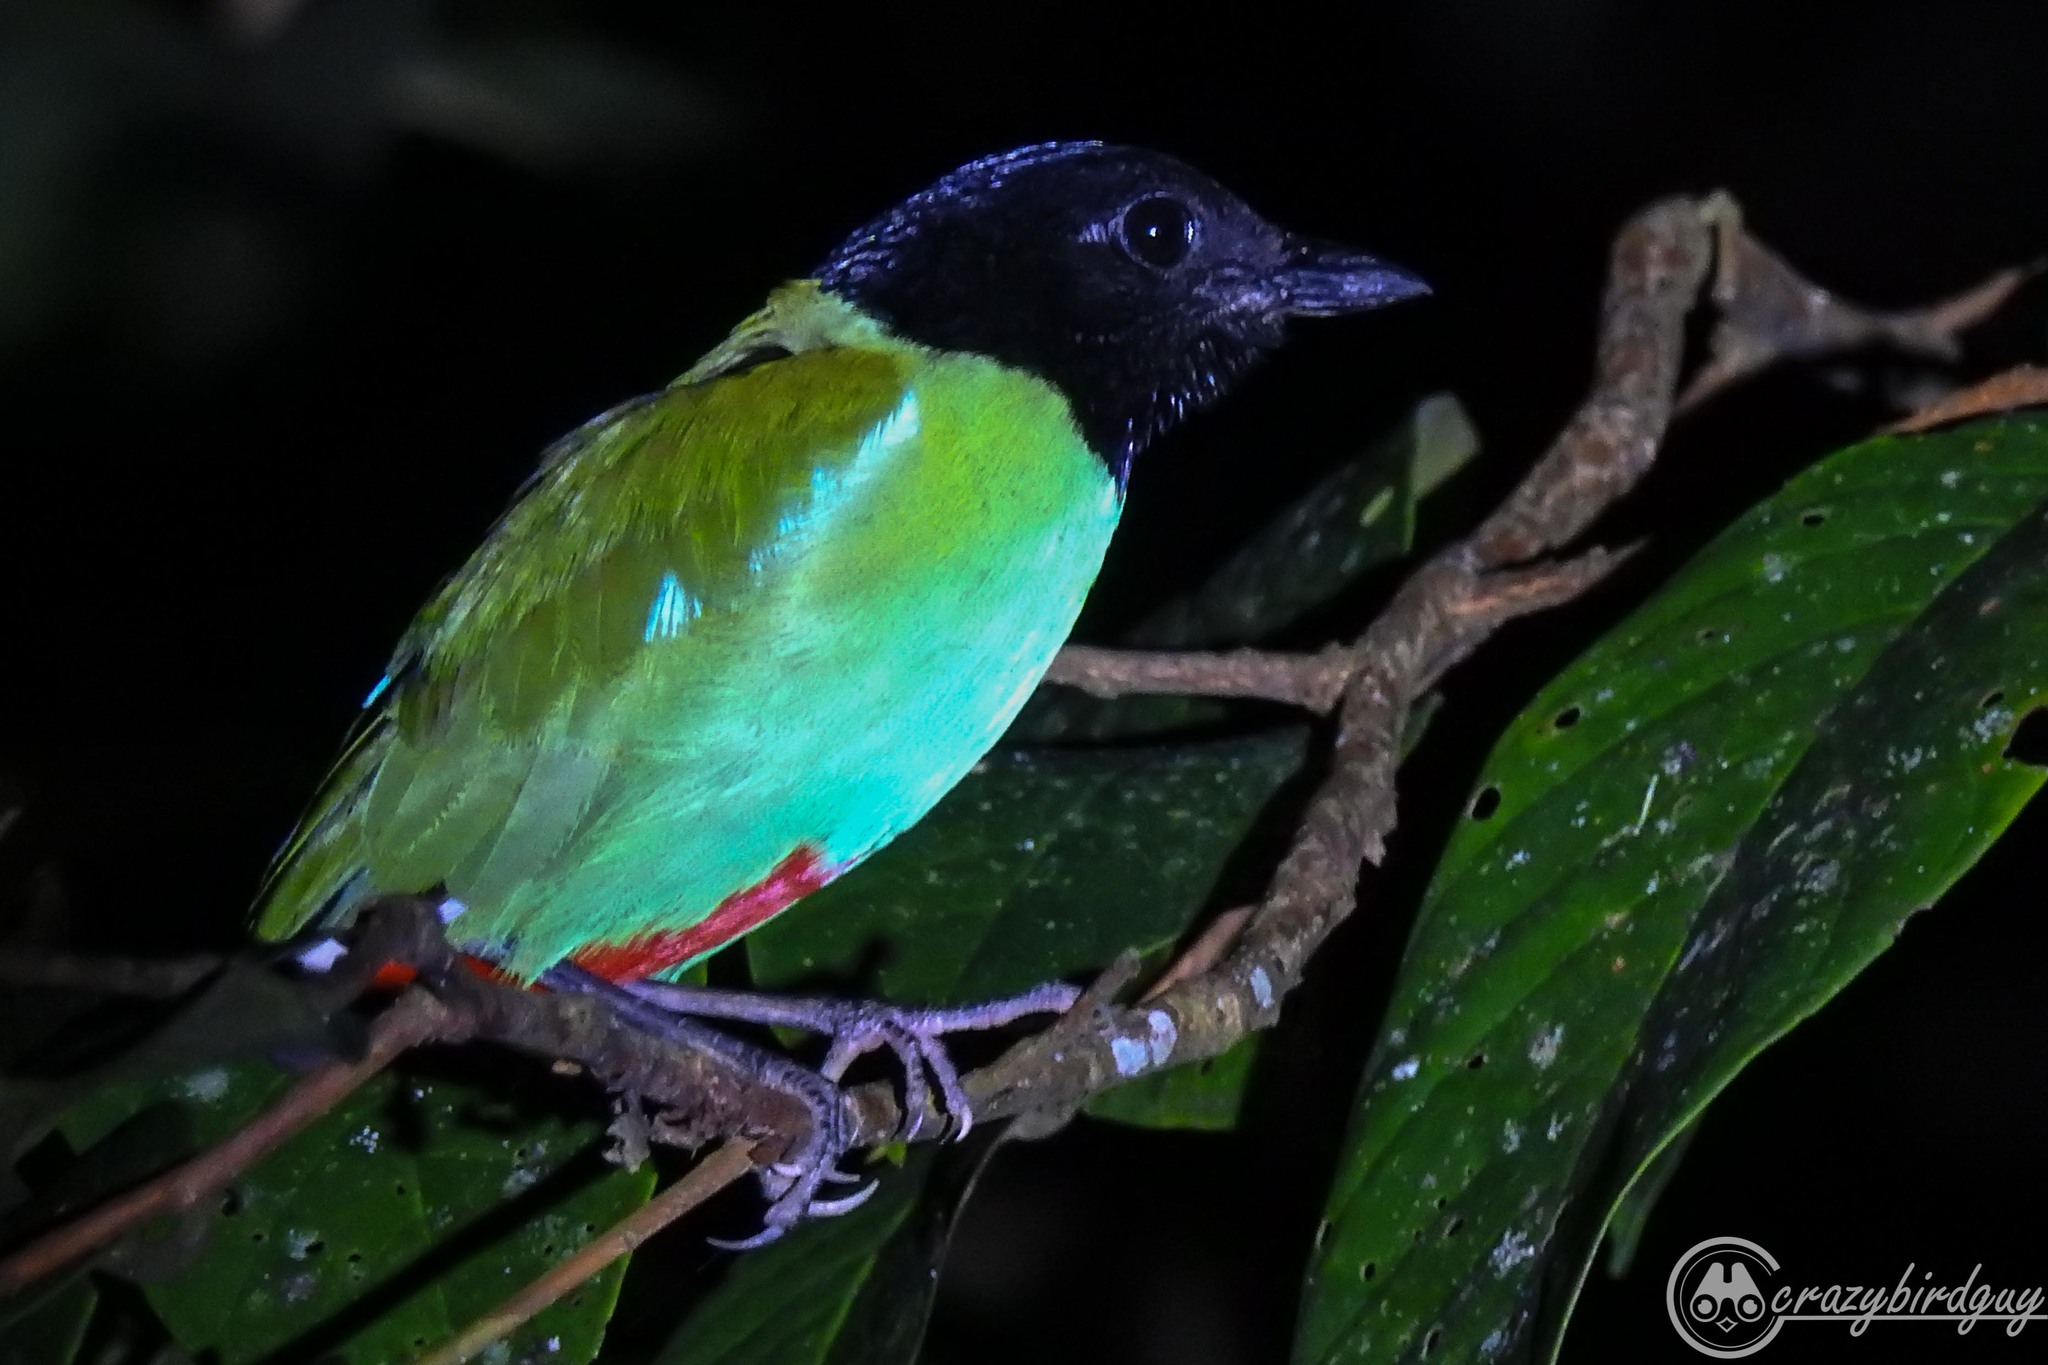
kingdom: Animalia
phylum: Chordata
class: Aves
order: Passeriformes
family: Pittidae
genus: Pitta
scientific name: Pitta sordida
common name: Hooded pitta
